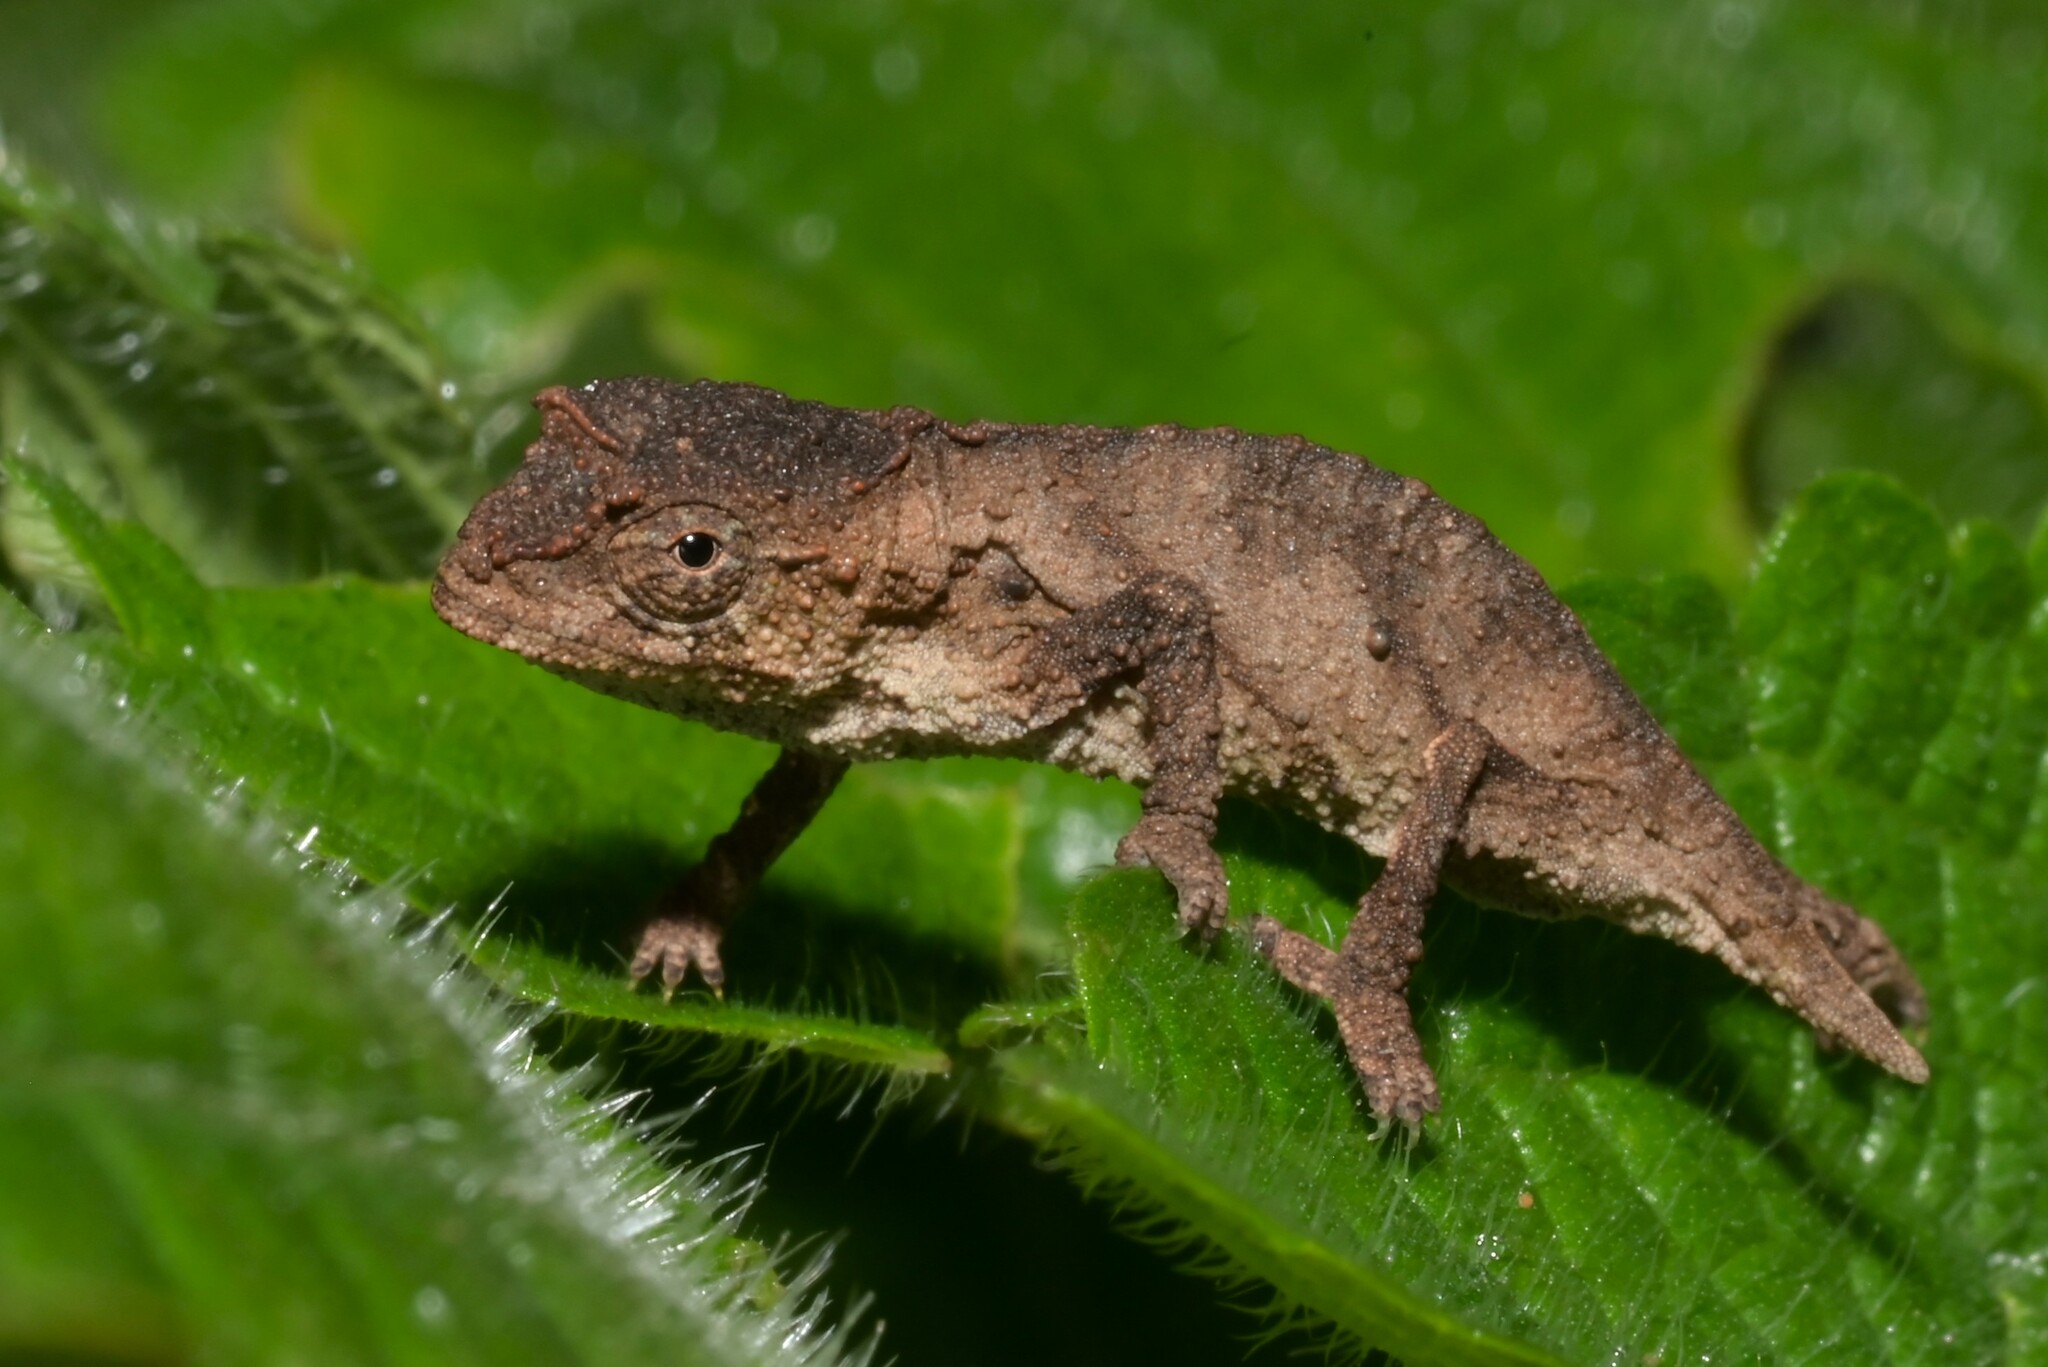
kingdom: Animalia
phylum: Chordata
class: Squamata
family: Chamaeleonidae
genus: Rhampholeon
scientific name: Rhampholeon nchisiensis
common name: South african stumptail chameleon
